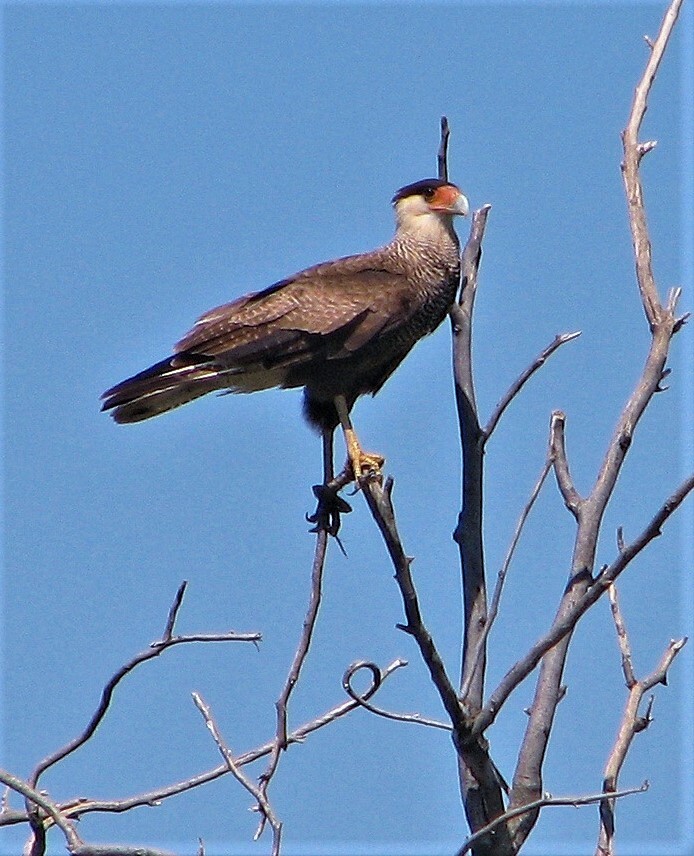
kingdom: Animalia
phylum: Chordata
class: Aves
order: Falconiformes
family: Falconidae
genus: Caracara
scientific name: Caracara plancus
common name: Southern caracara
